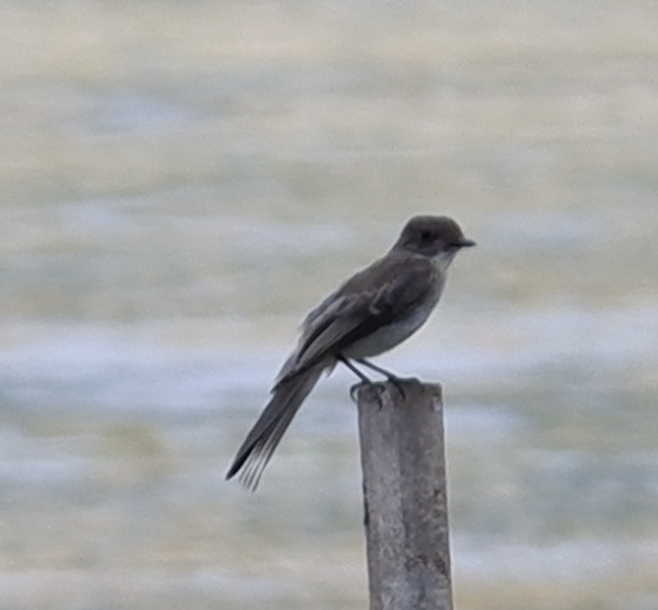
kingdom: Animalia
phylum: Chordata
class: Aves
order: Passeriformes
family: Tyrannidae
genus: Sayornis
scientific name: Sayornis phoebe
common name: Eastern phoebe
